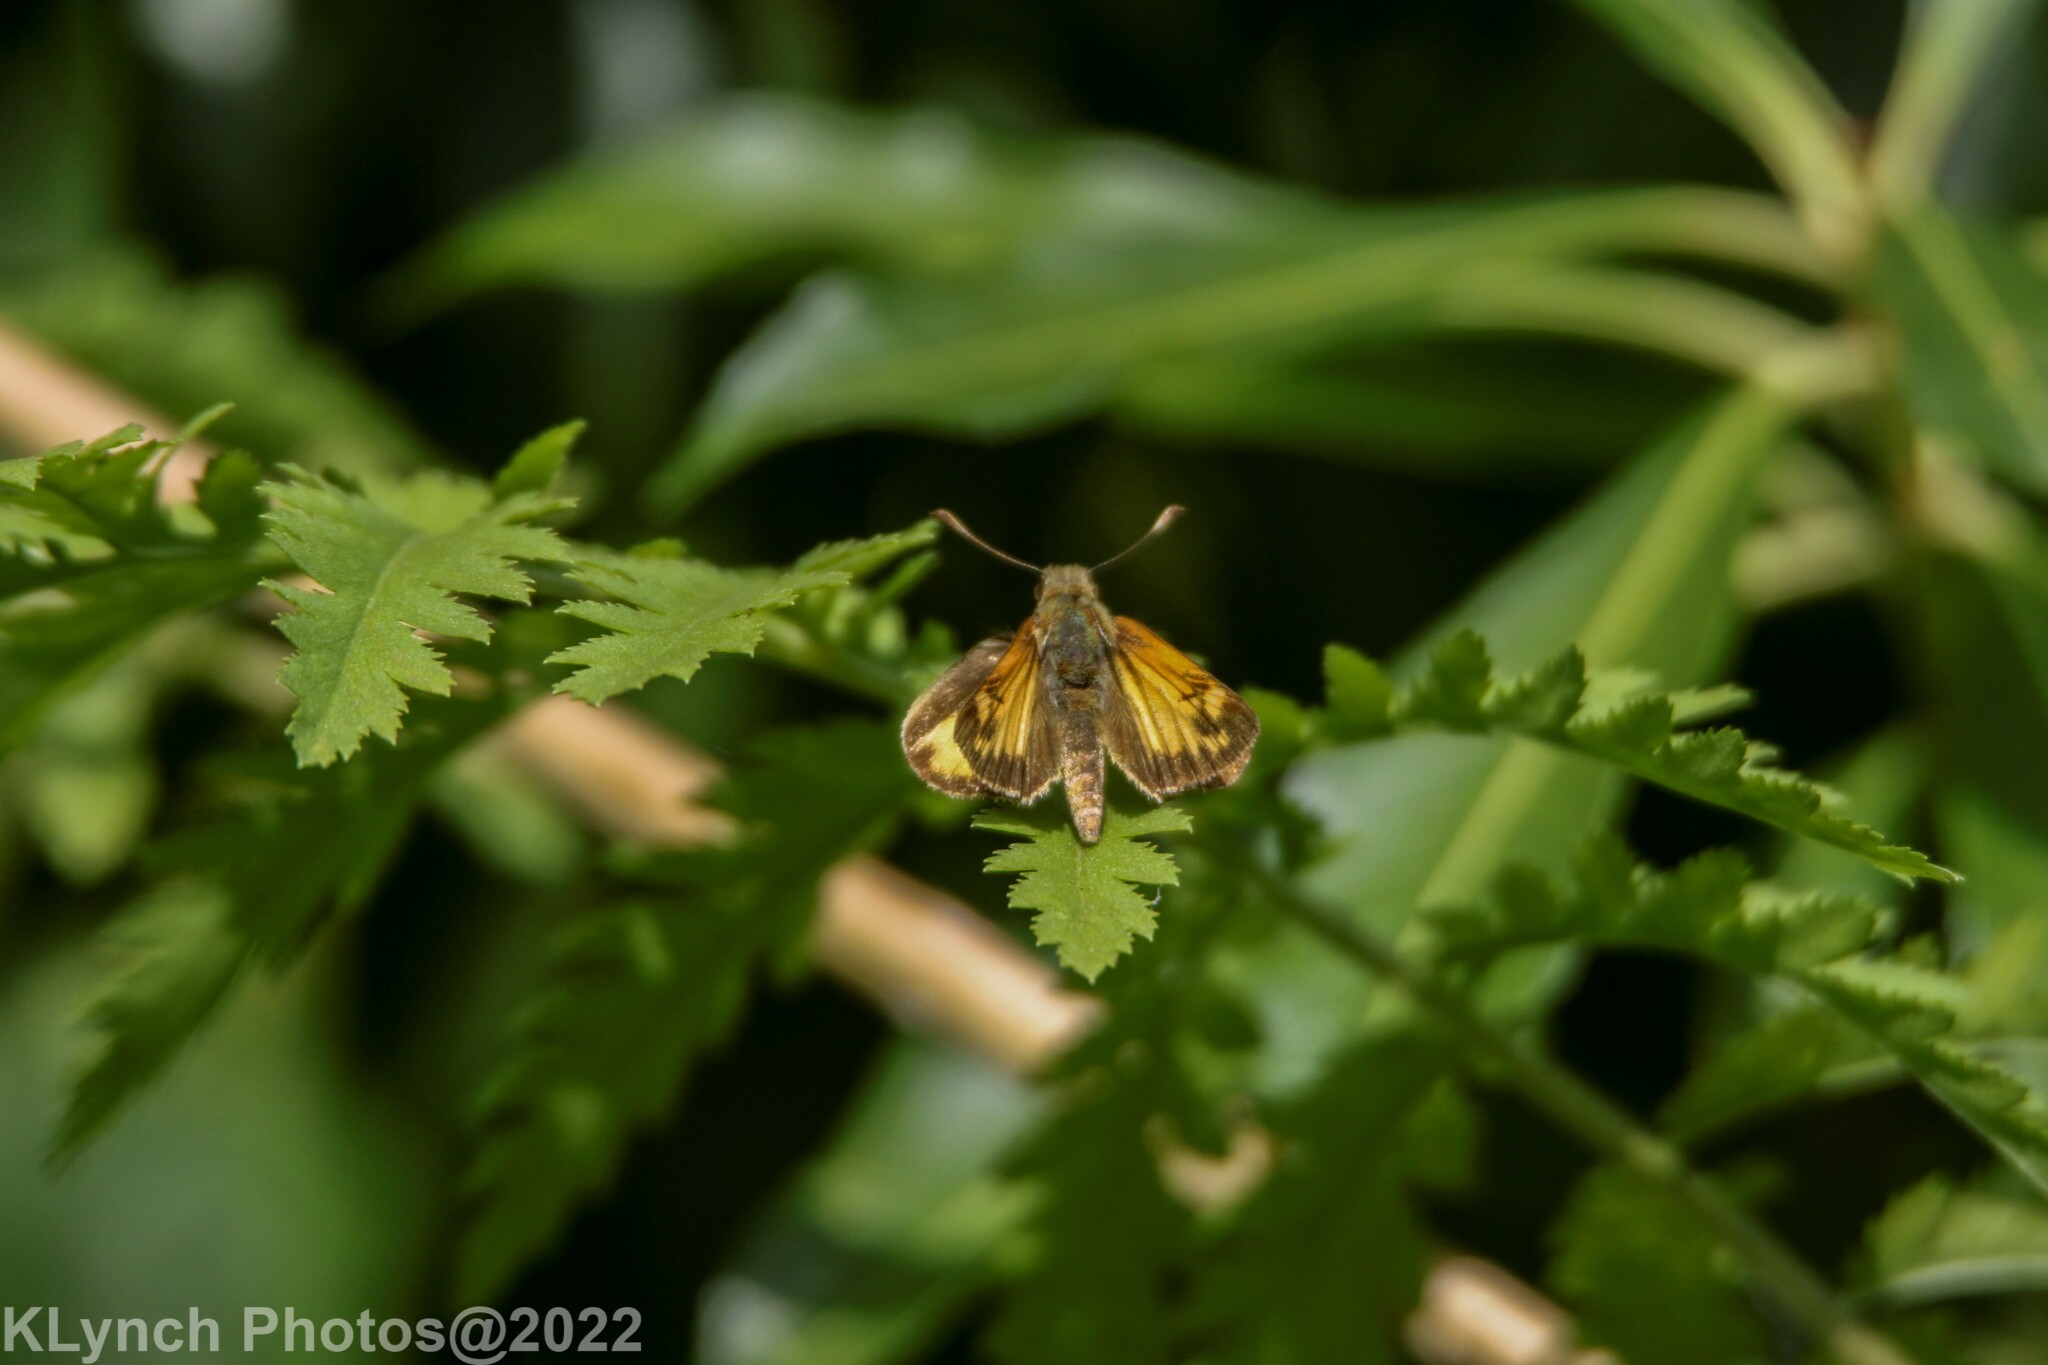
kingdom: Animalia
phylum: Arthropoda
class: Insecta
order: Lepidoptera
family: Hesperiidae
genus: Lon
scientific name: Lon zabulon
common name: Zabulon skipper
